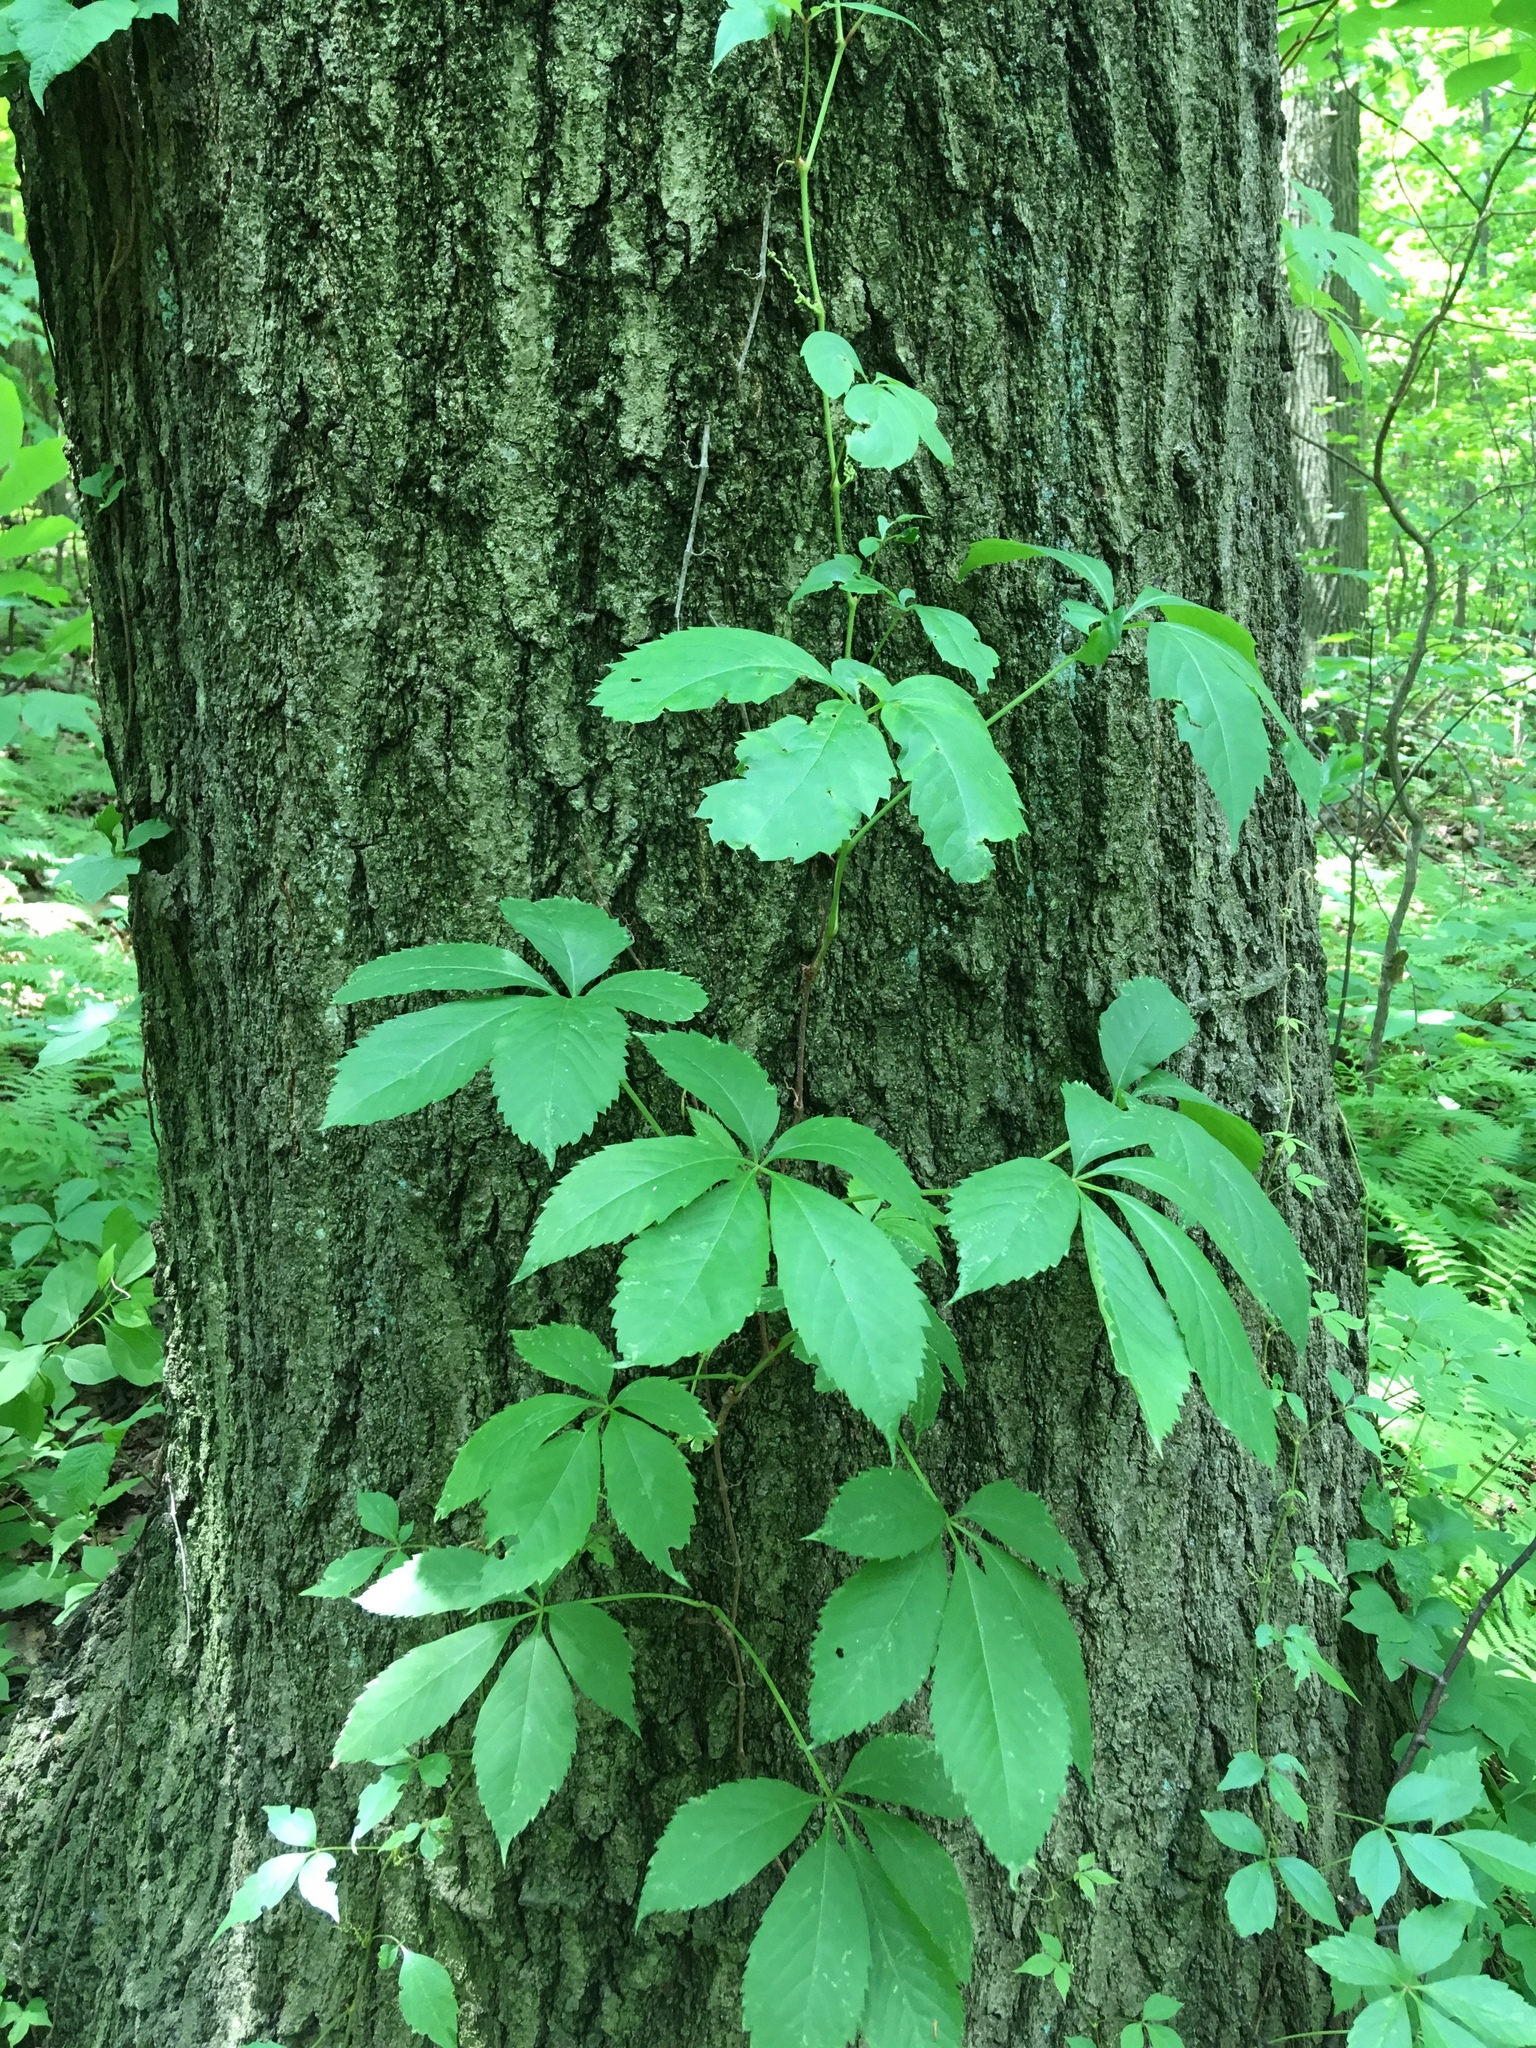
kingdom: Plantae
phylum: Tracheophyta
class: Magnoliopsida
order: Vitales
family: Vitaceae
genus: Parthenocissus
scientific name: Parthenocissus quinquefolia
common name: Virginia-creeper
